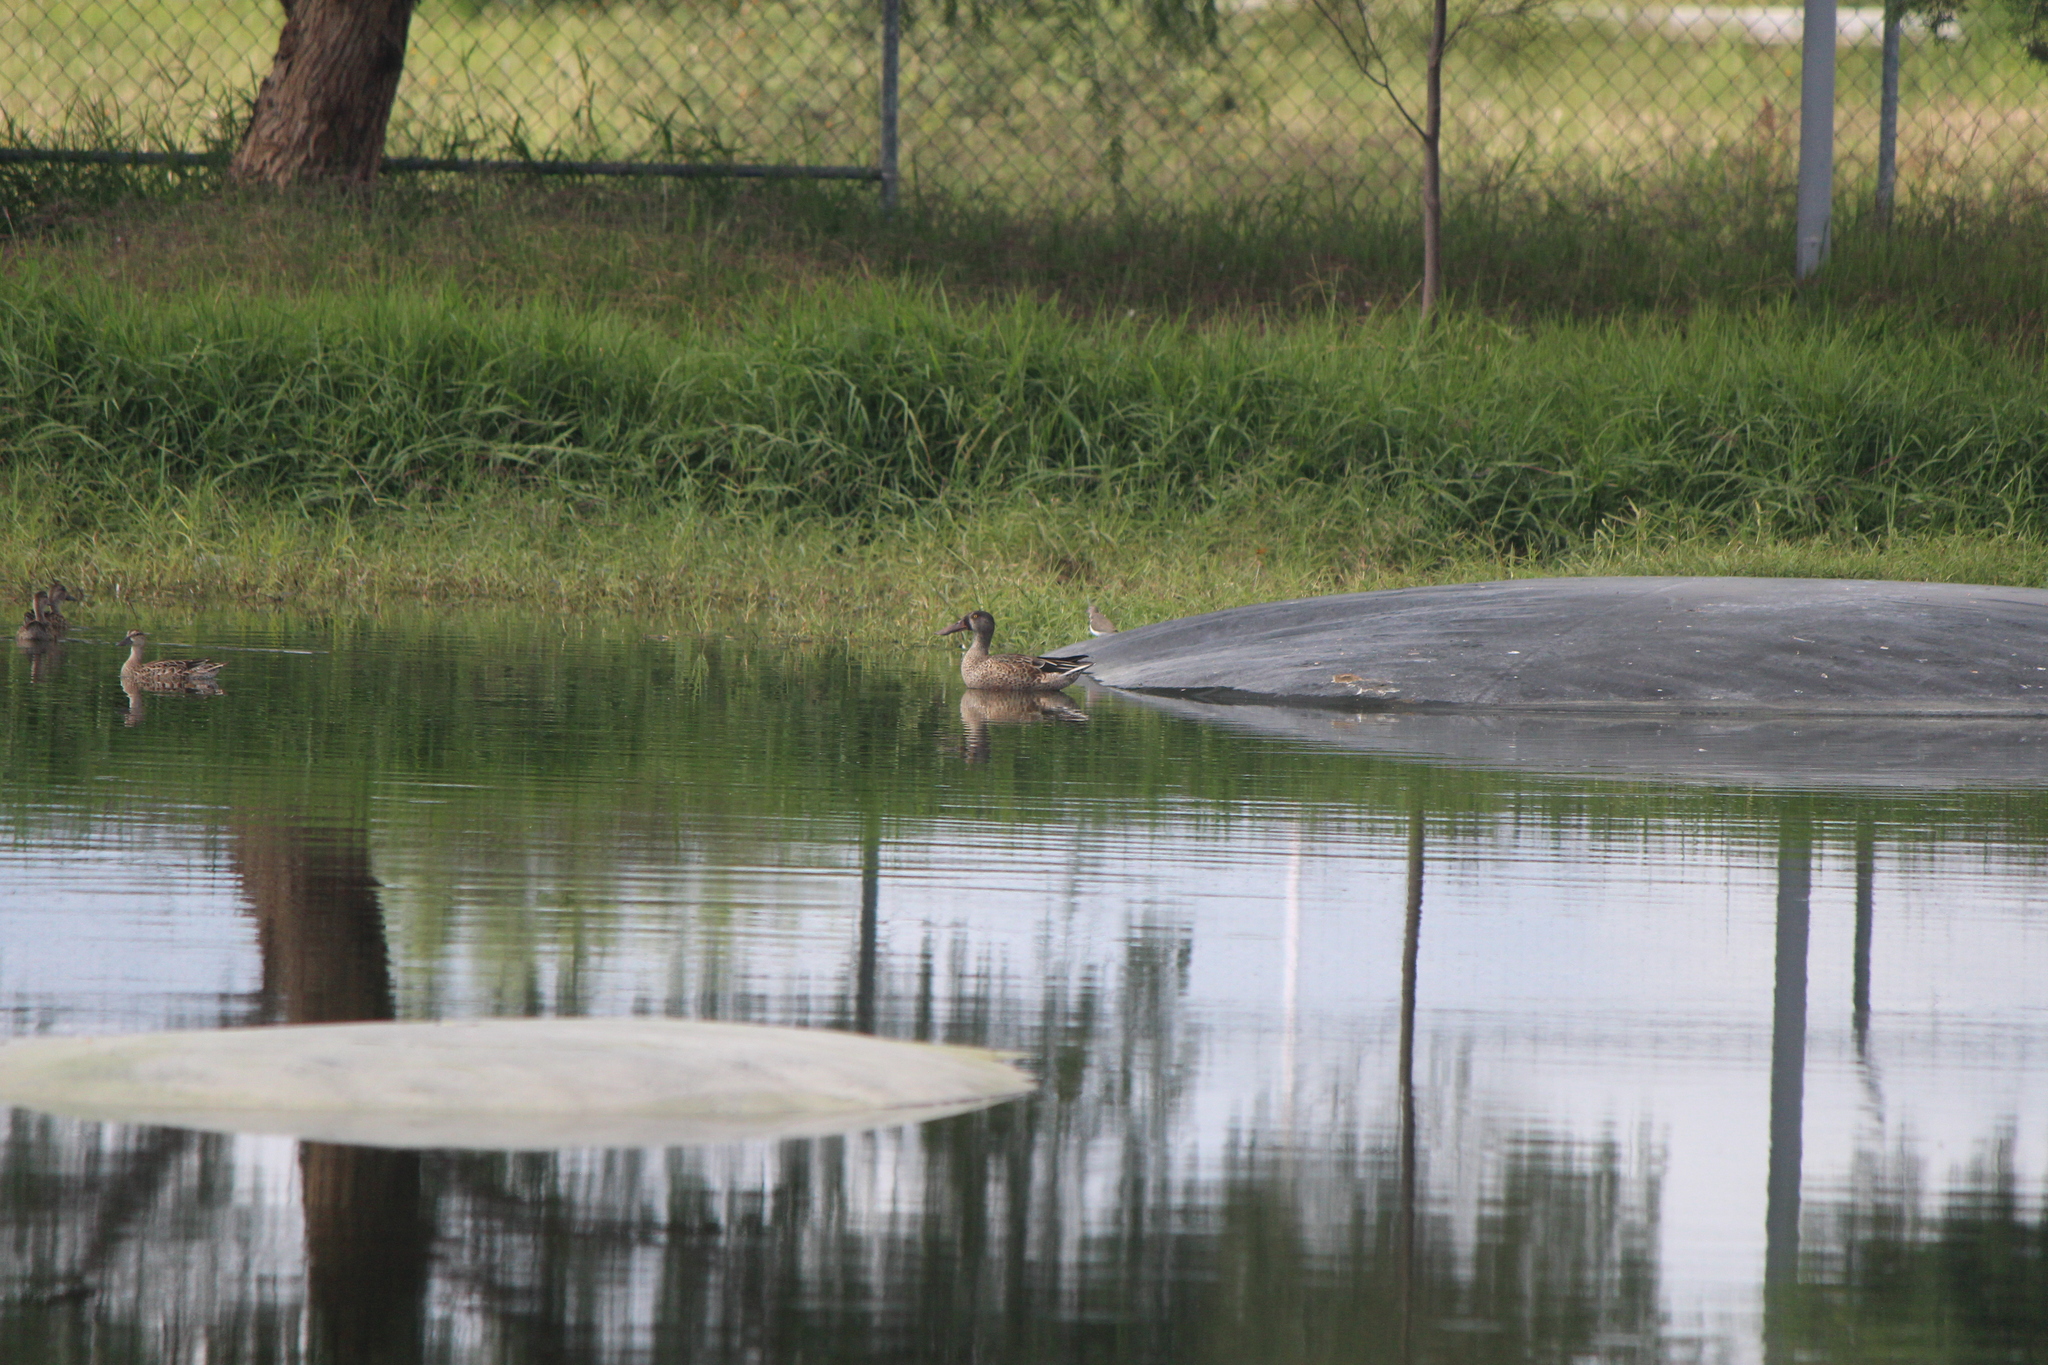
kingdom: Animalia
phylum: Chordata
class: Aves
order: Anseriformes
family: Anatidae
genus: Spatula
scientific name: Spatula clypeata
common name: Northern shoveler
